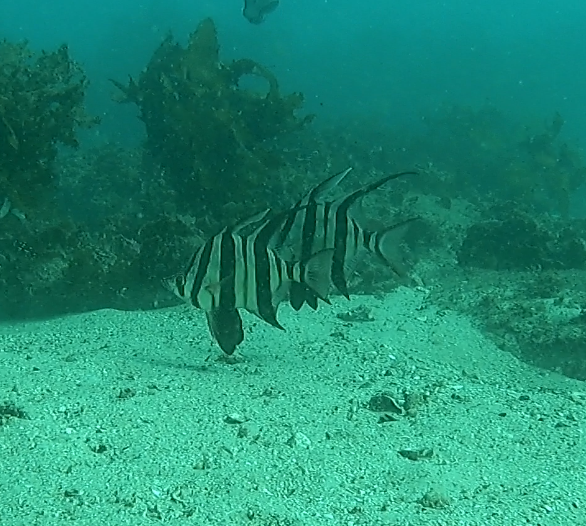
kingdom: Animalia
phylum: Chordata
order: Perciformes
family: Enoplosidae
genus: Enoplosus
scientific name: Enoplosus armatus
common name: Old wife
